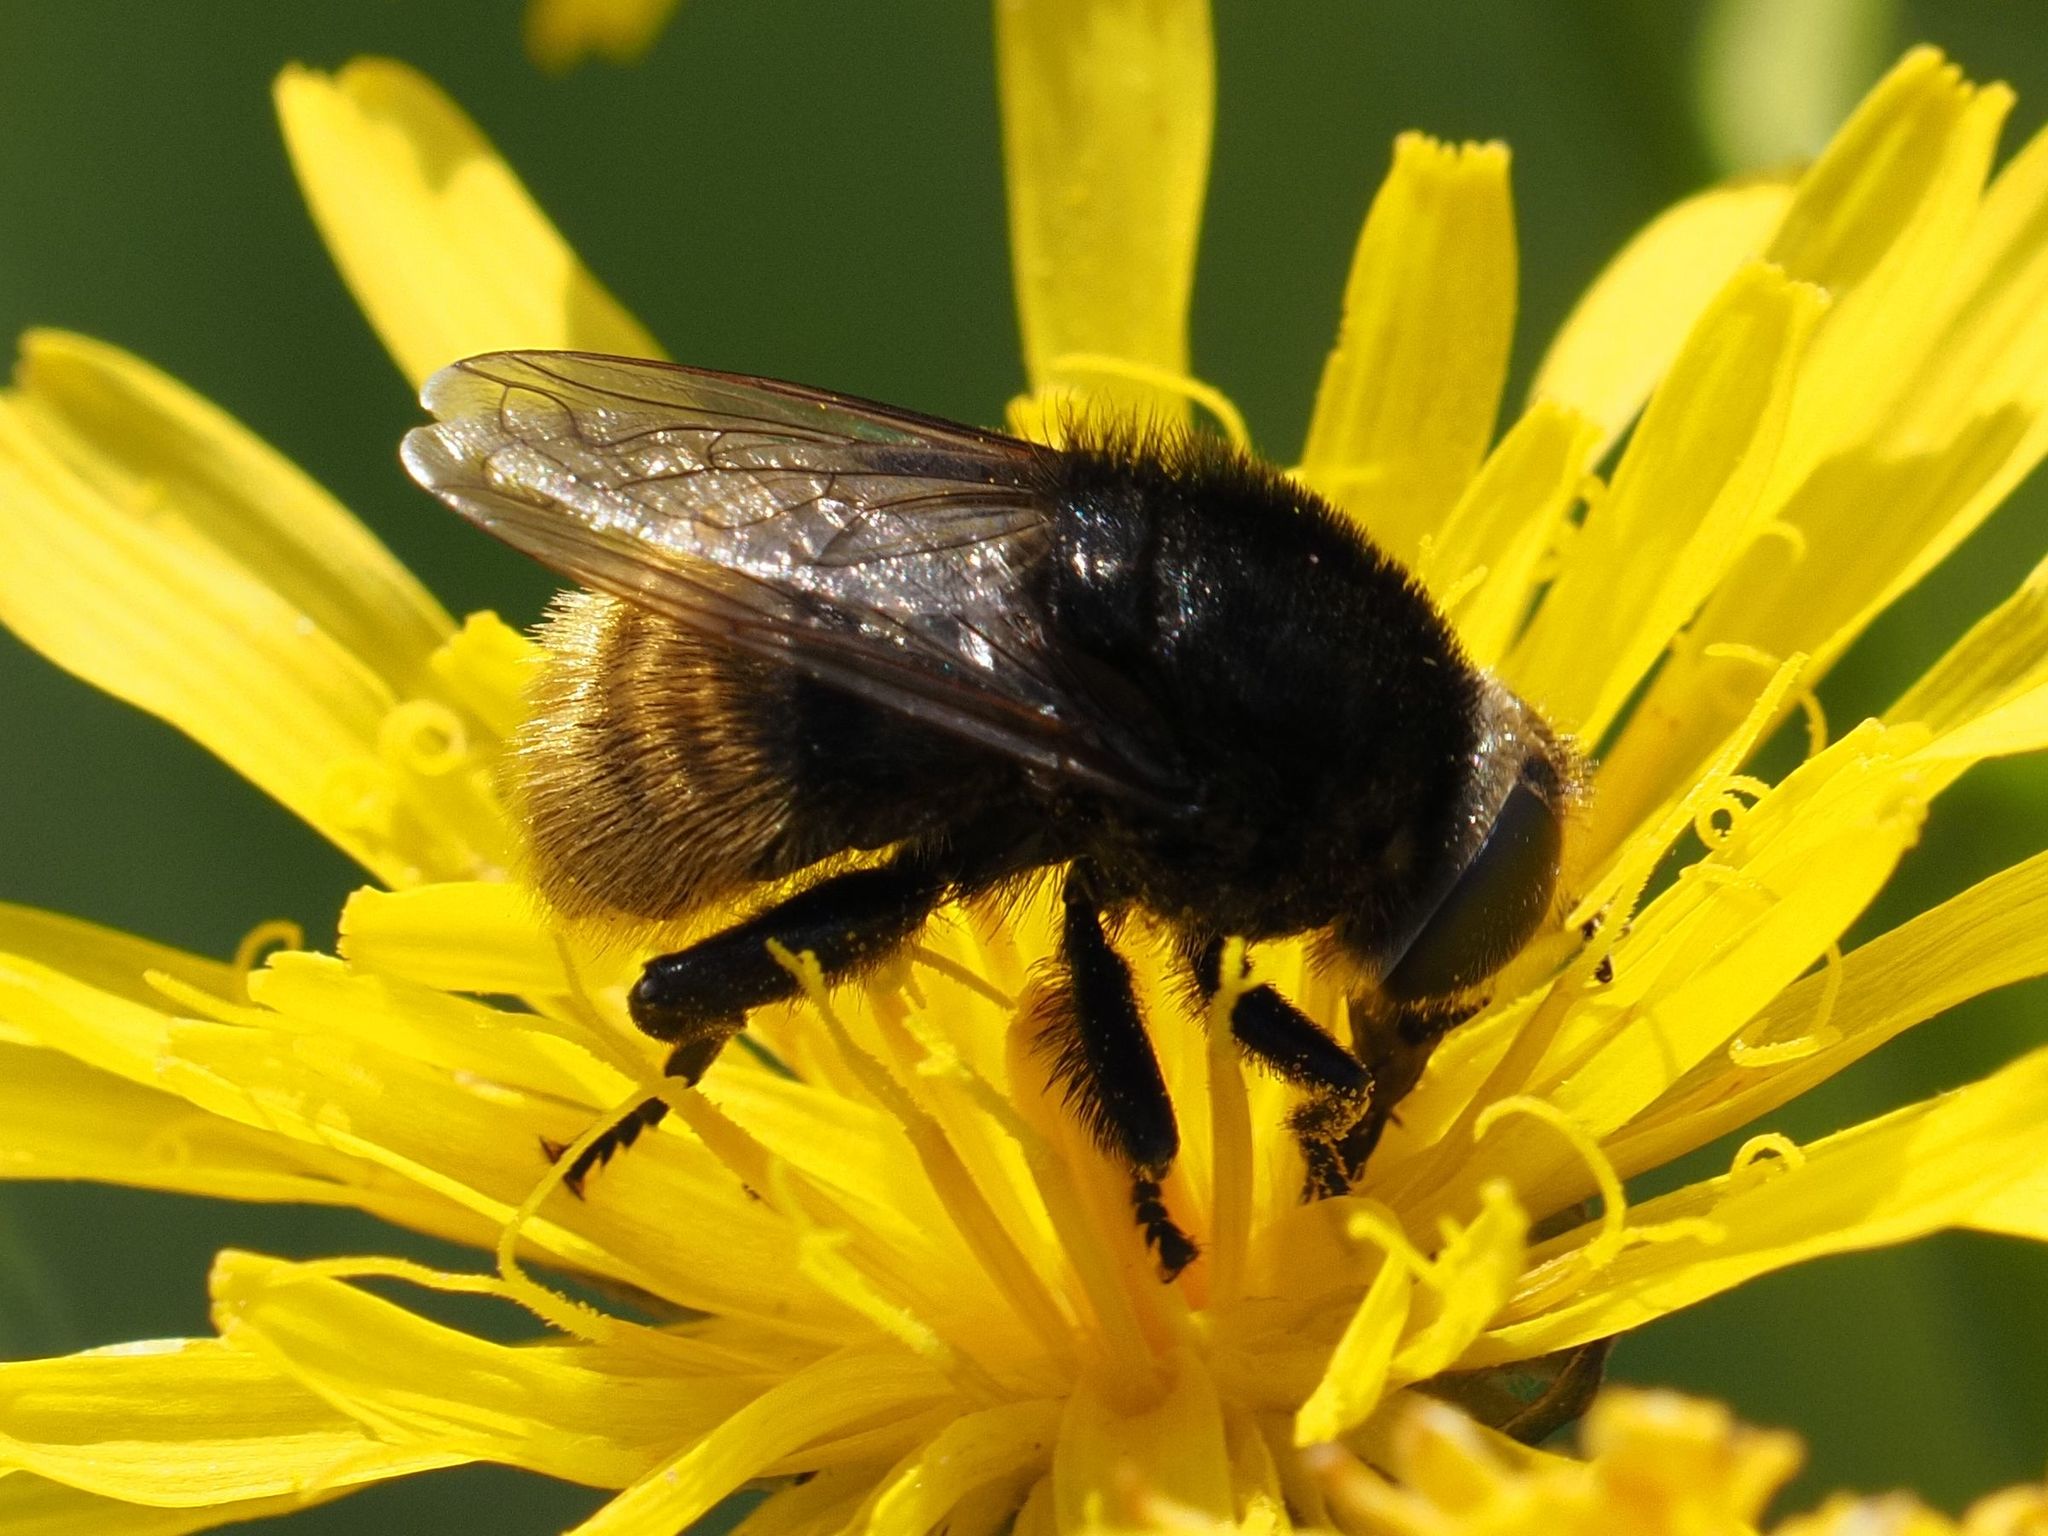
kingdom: Animalia
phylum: Arthropoda
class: Insecta
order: Diptera
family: Syrphidae
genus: Merodon
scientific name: Merodon equestris
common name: Greater bulb-fly
